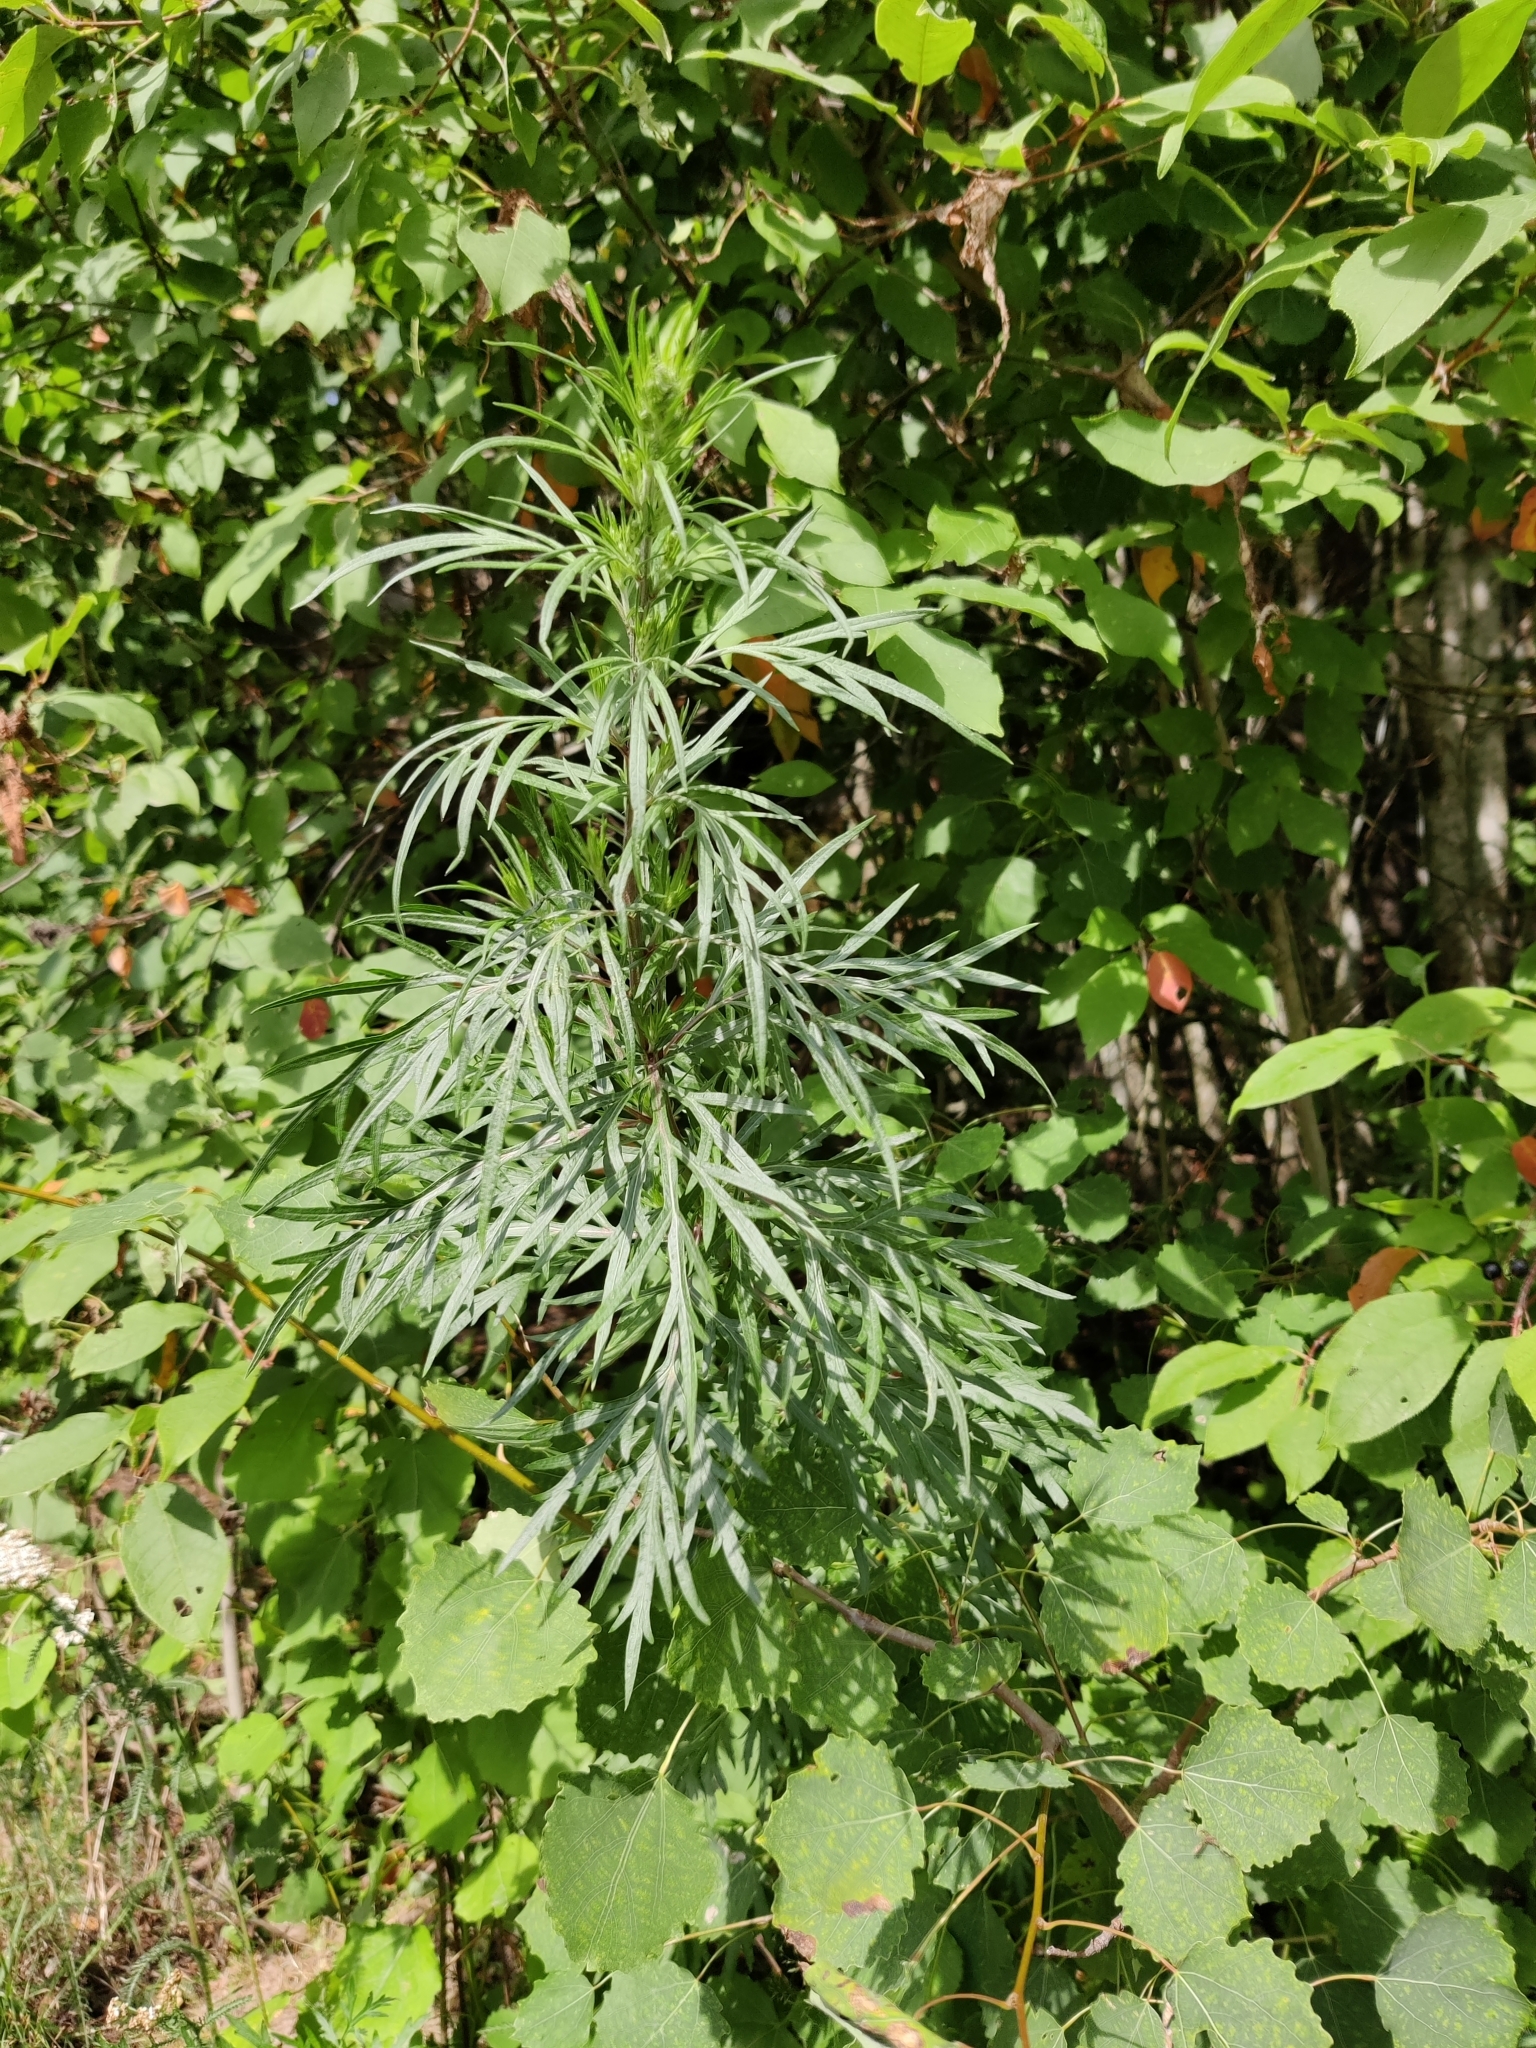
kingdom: Plantae
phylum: Tracheophyta
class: Magnoliopsida
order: Asterales
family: Asteraceae
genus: Artemisia
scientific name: Artemisia vulgaris
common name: Mugwort
